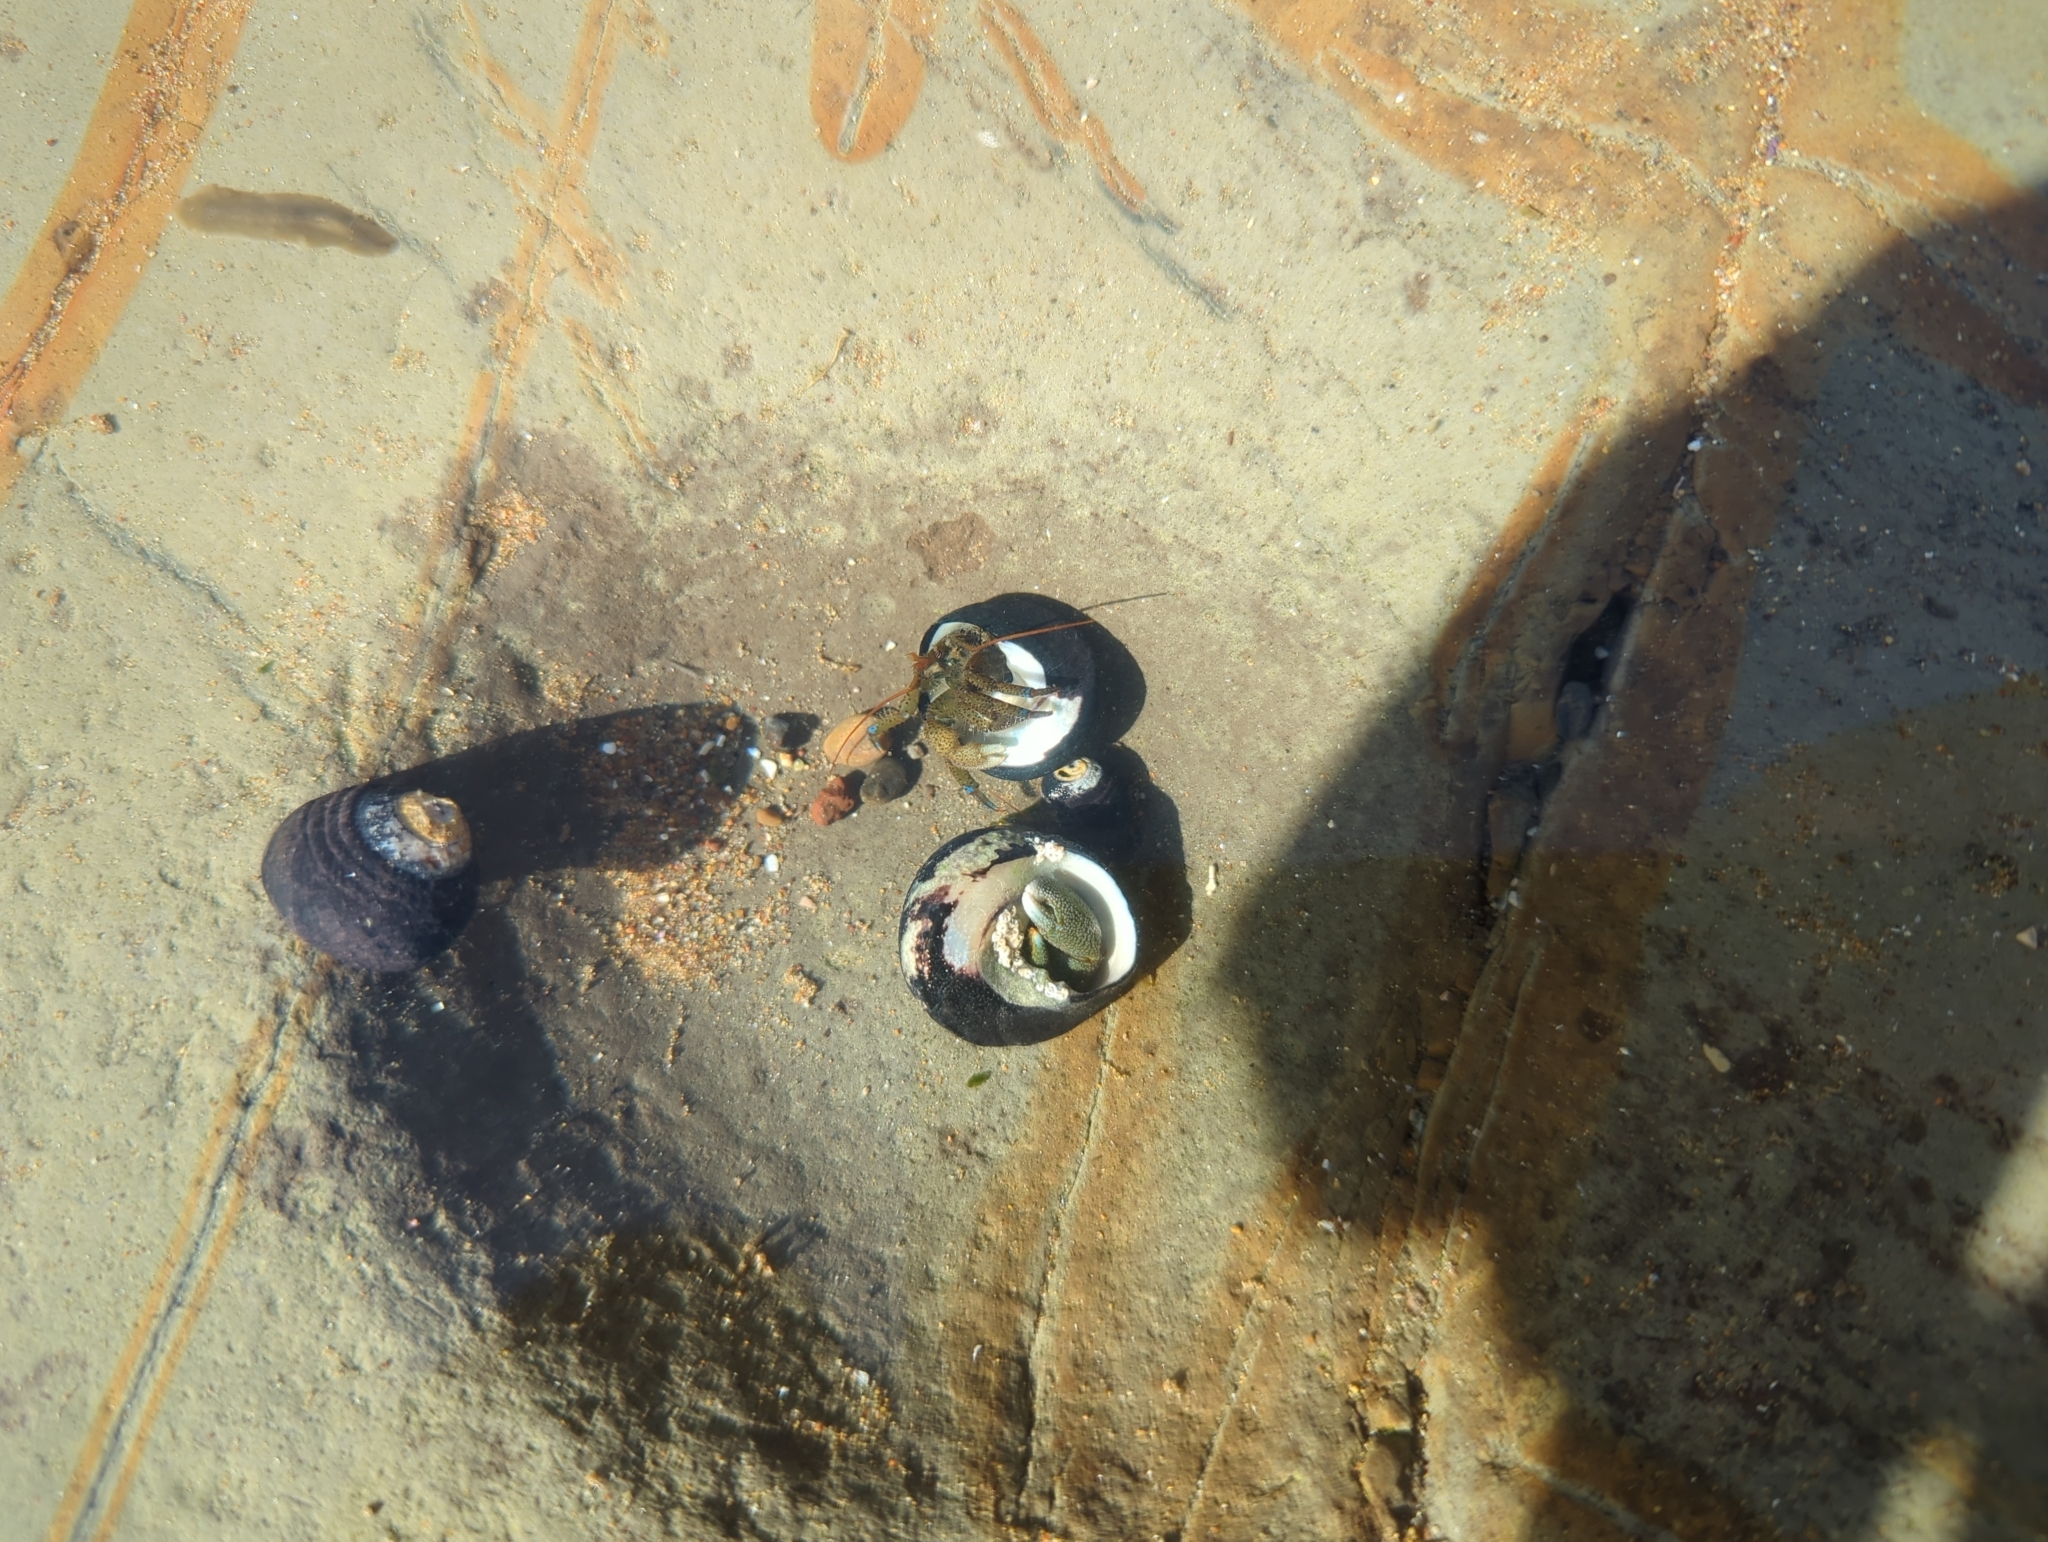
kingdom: Animalia
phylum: Arthropoda
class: Malacostraca
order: Decapoda
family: Paguridae
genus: Pagurus
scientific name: Pagurus samuelis
